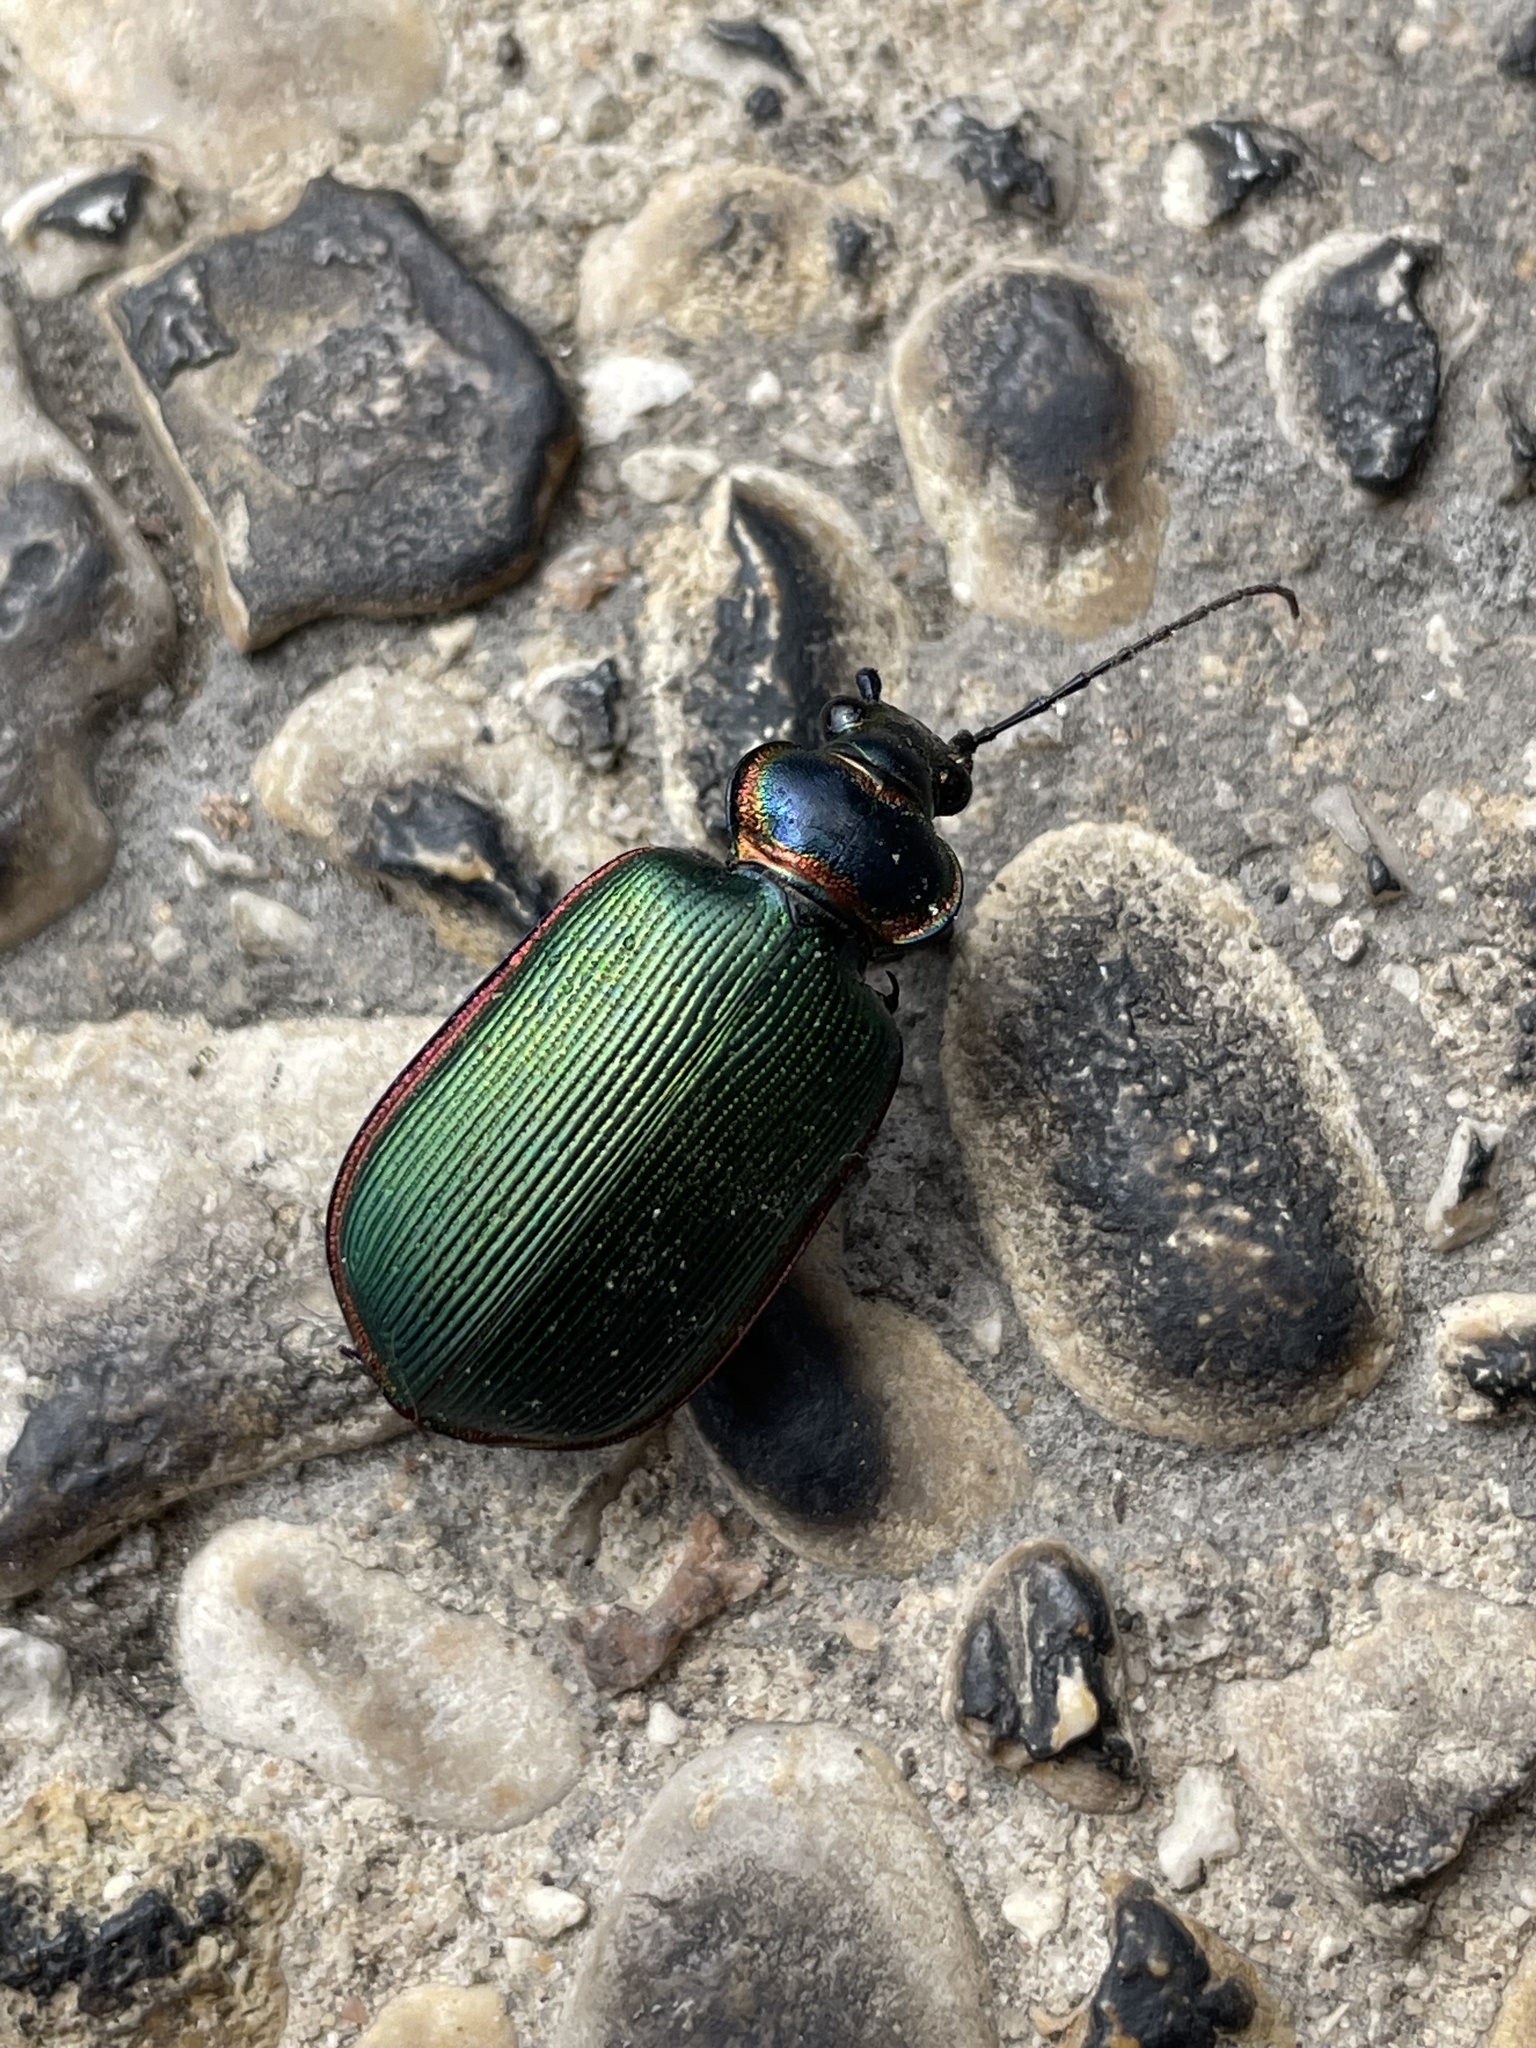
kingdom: Animalia
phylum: Arthropoda
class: Insecta
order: Coleoptera
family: Carabidae
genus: Calosoma
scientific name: Calosoma scrutator
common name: Fiery searcher beetle
